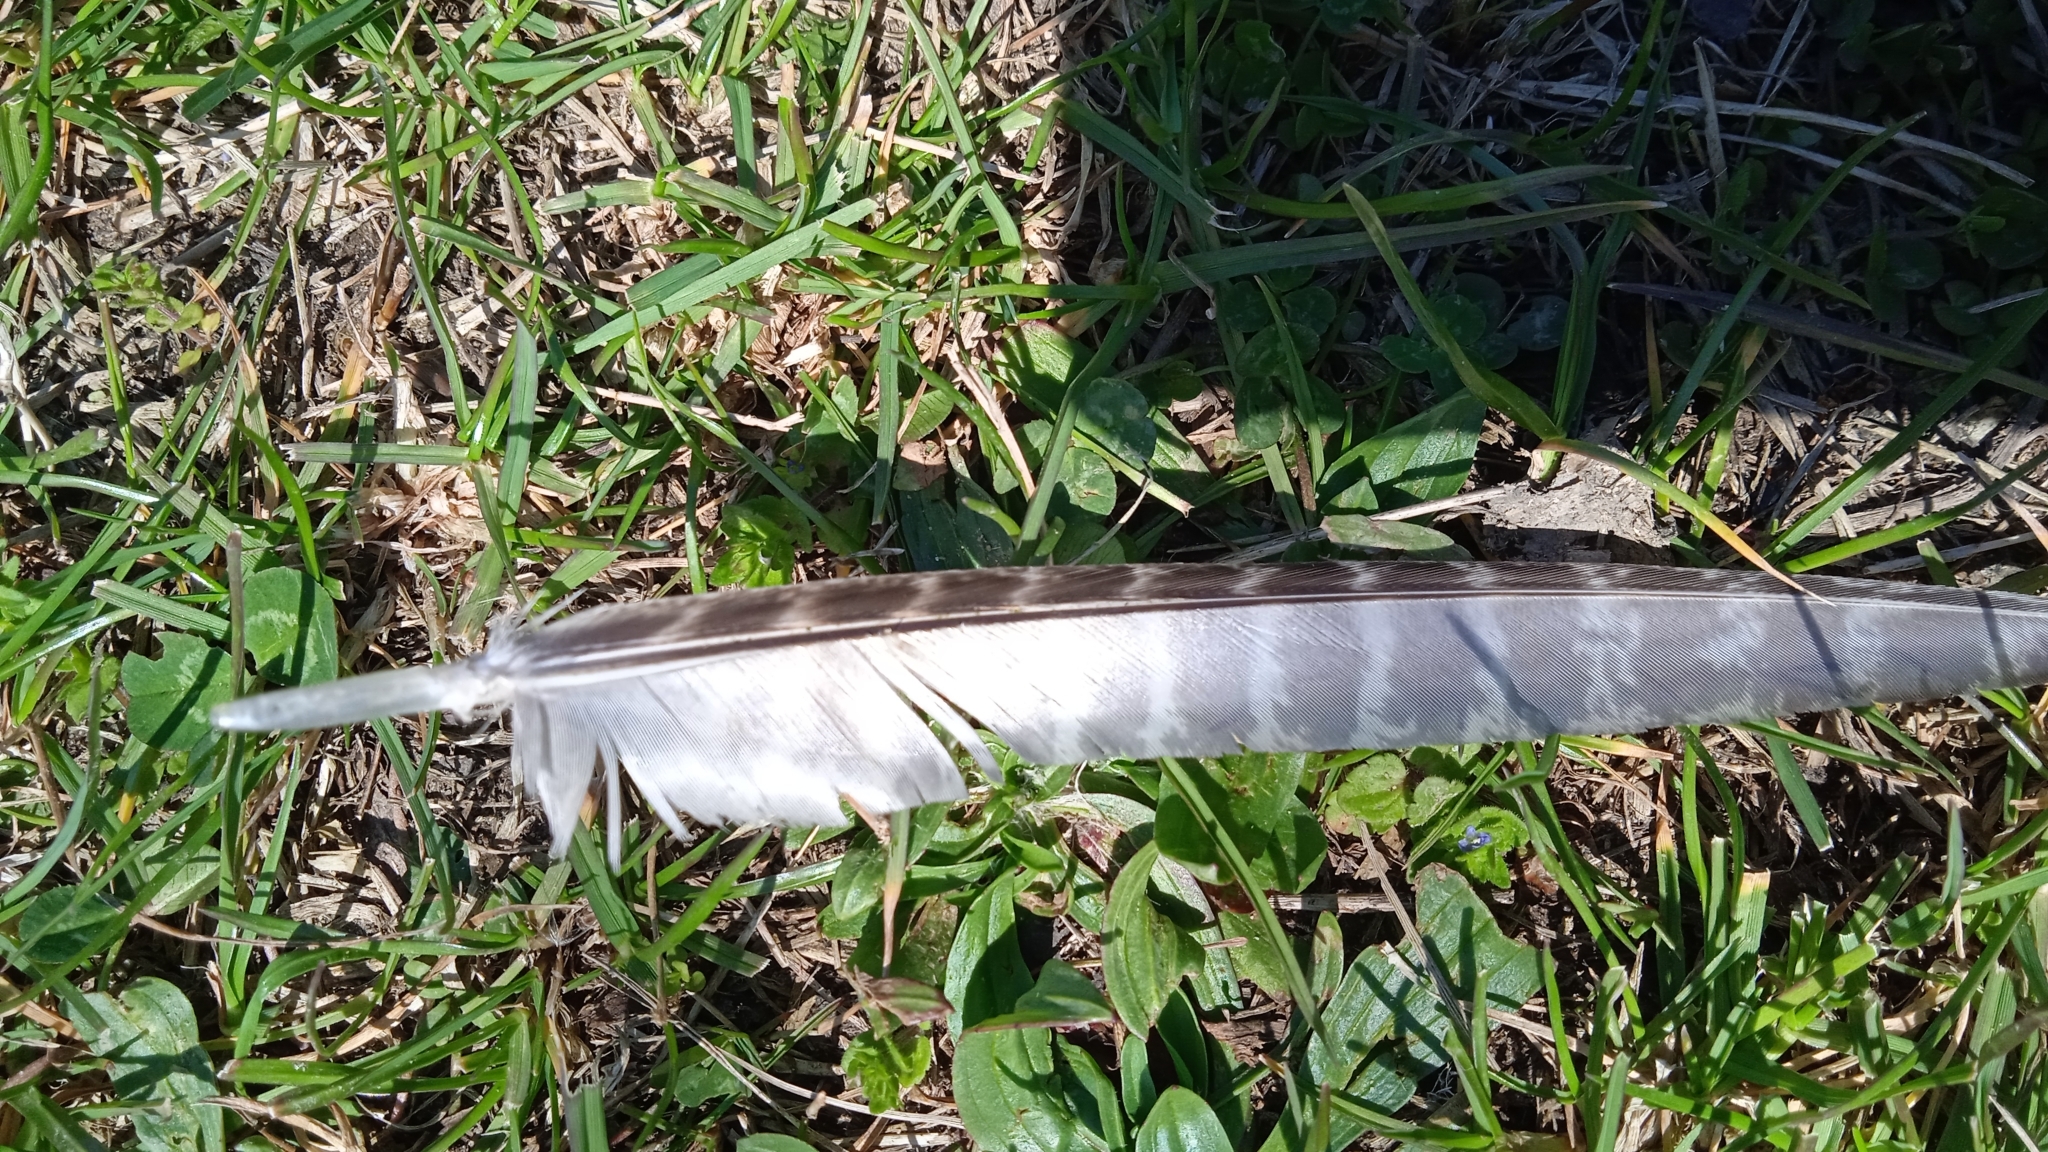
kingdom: Animalia
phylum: Chordata
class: Aves
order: Galliformes
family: Phasianidae
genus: Phasianus
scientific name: Phasianus colchicus
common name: Common pheasant
